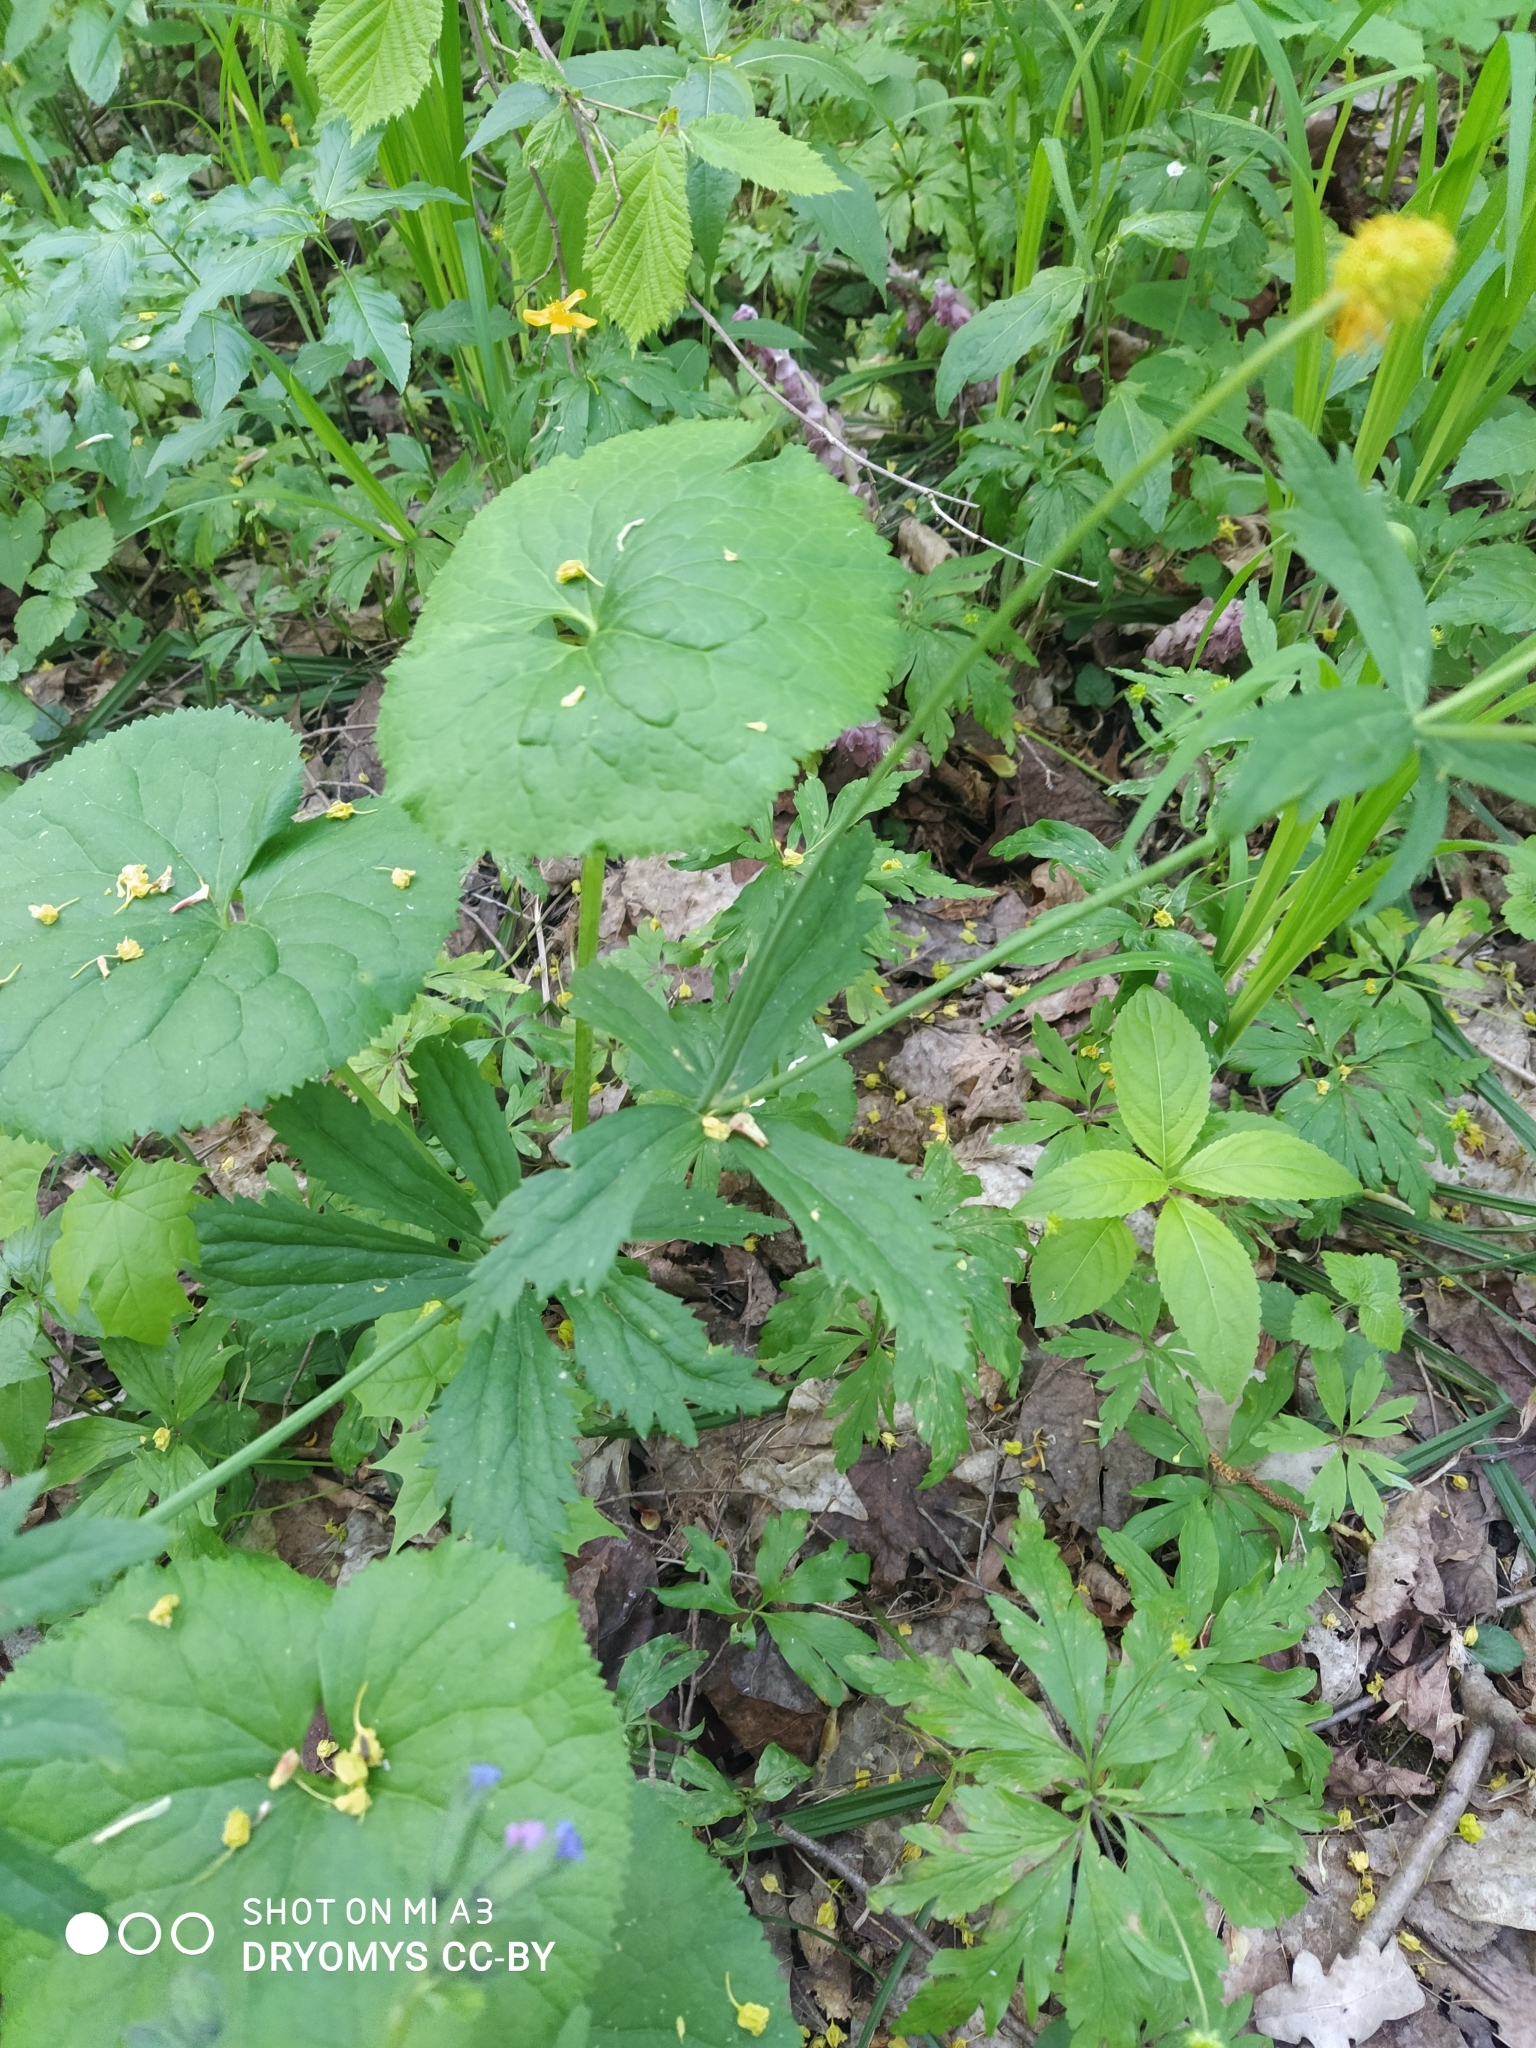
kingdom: Plantae
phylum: Tracheophyta
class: Magnoliopsida
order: Ranunculales
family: Ranunculaceae
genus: Ranunculus
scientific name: Ranunculus cassubicus
